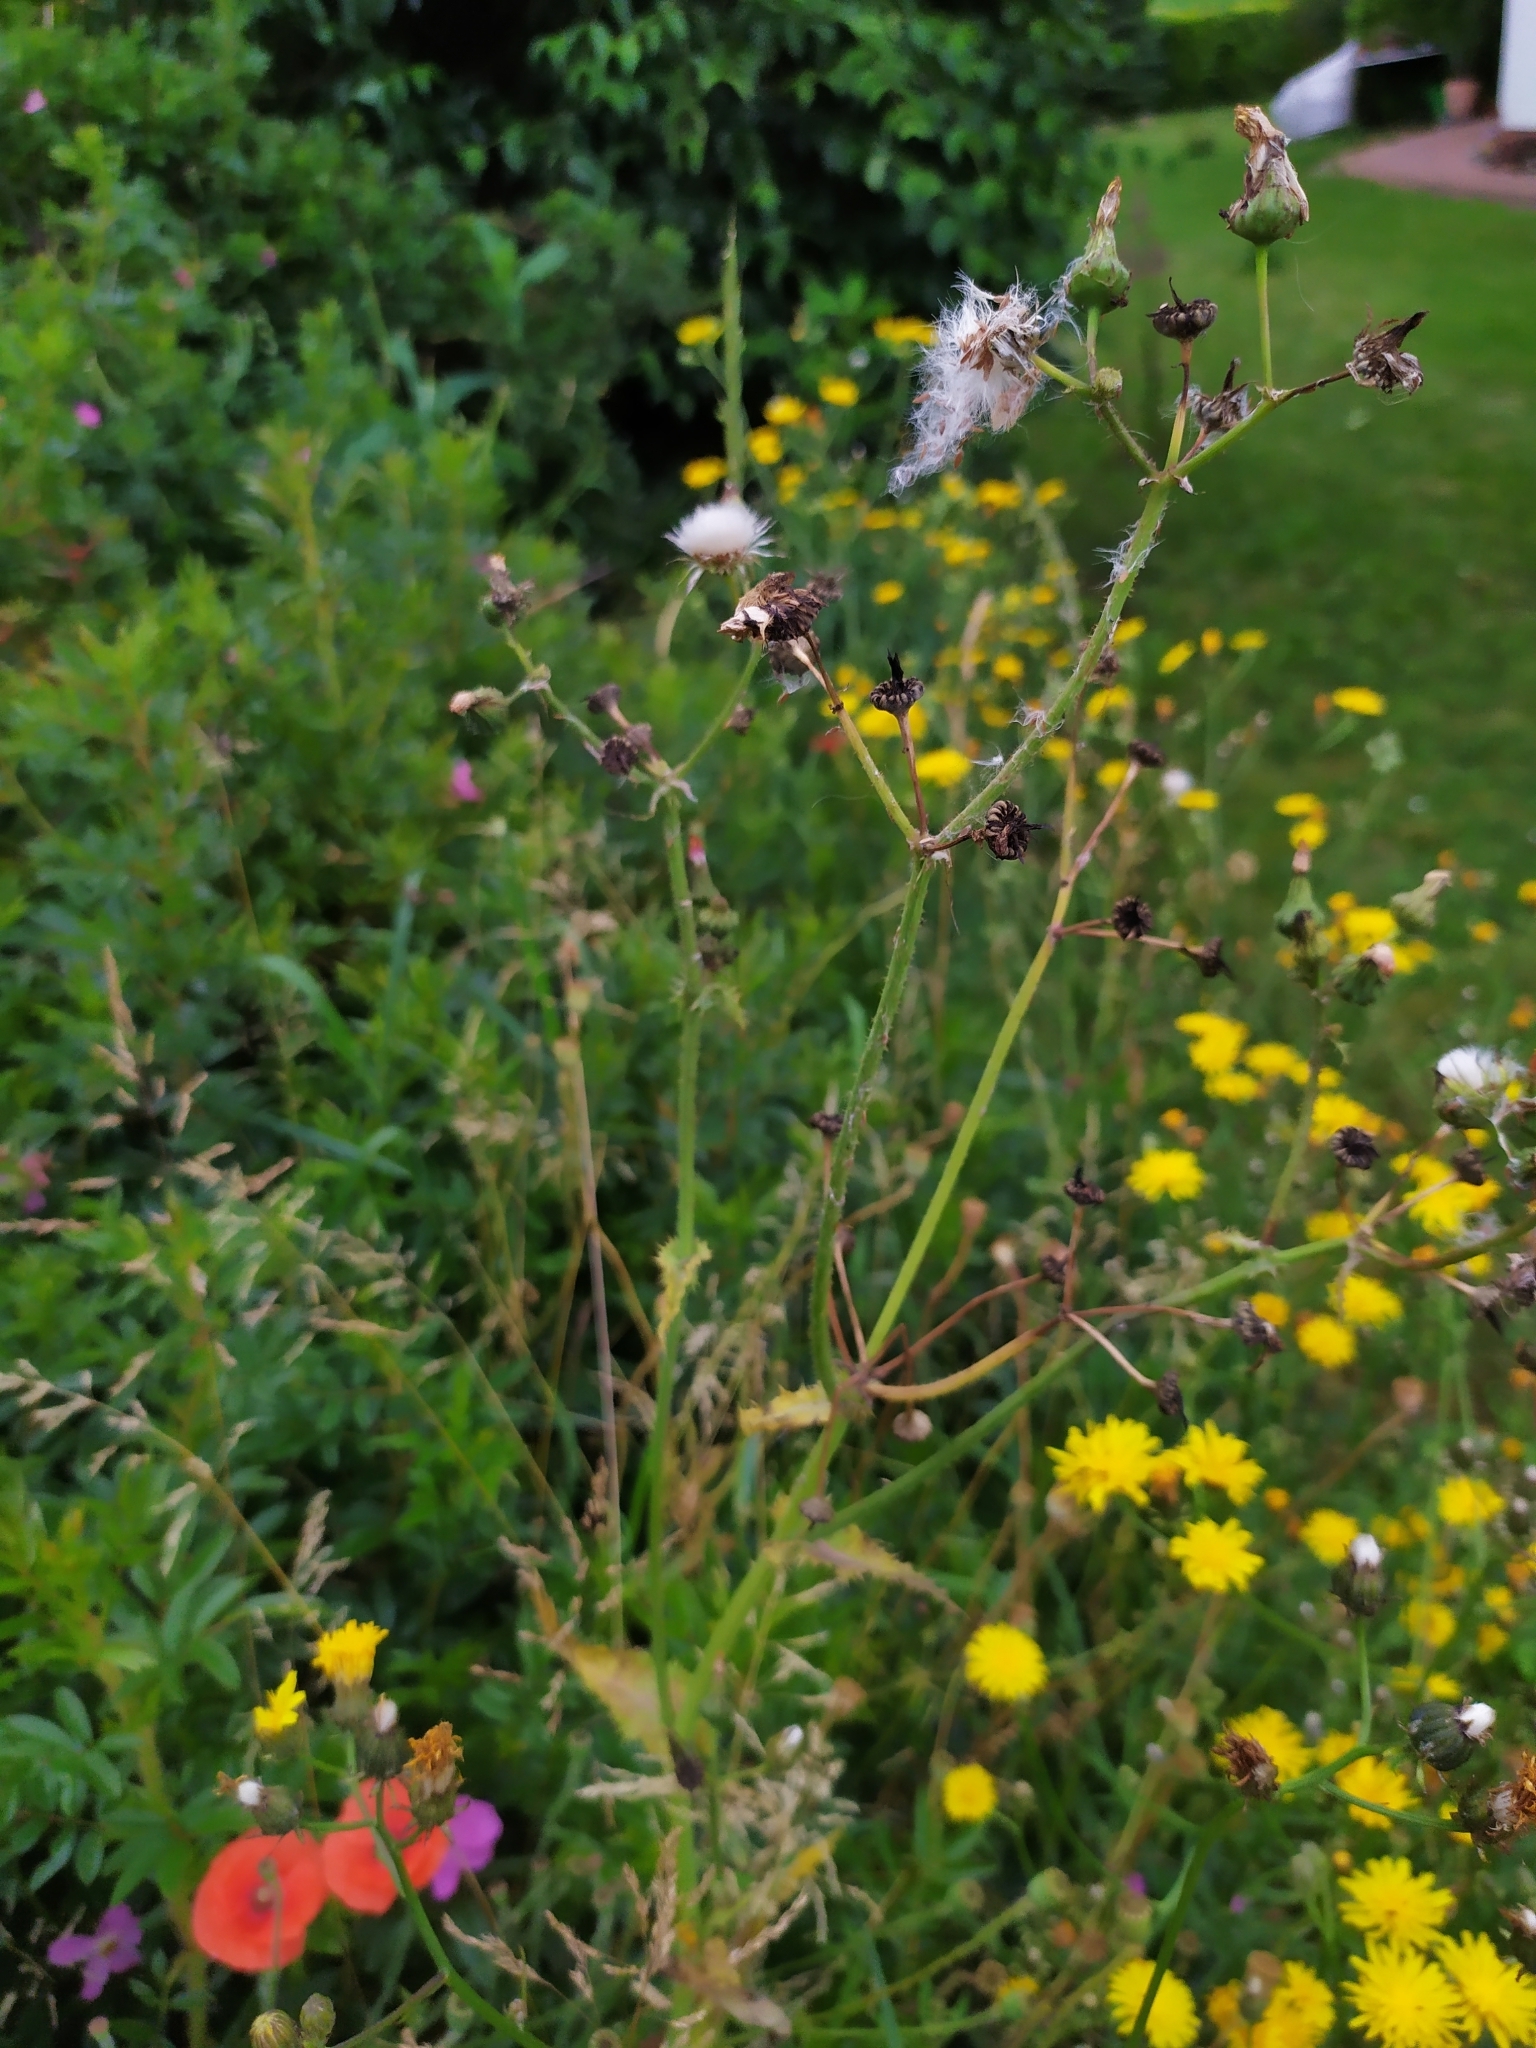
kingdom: Plantae
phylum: Tracheophyta
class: Magnoliopsida
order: Asterales
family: Asteraceae
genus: Sonchus
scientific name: Sonchus asper
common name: Prickly sow-thistle
